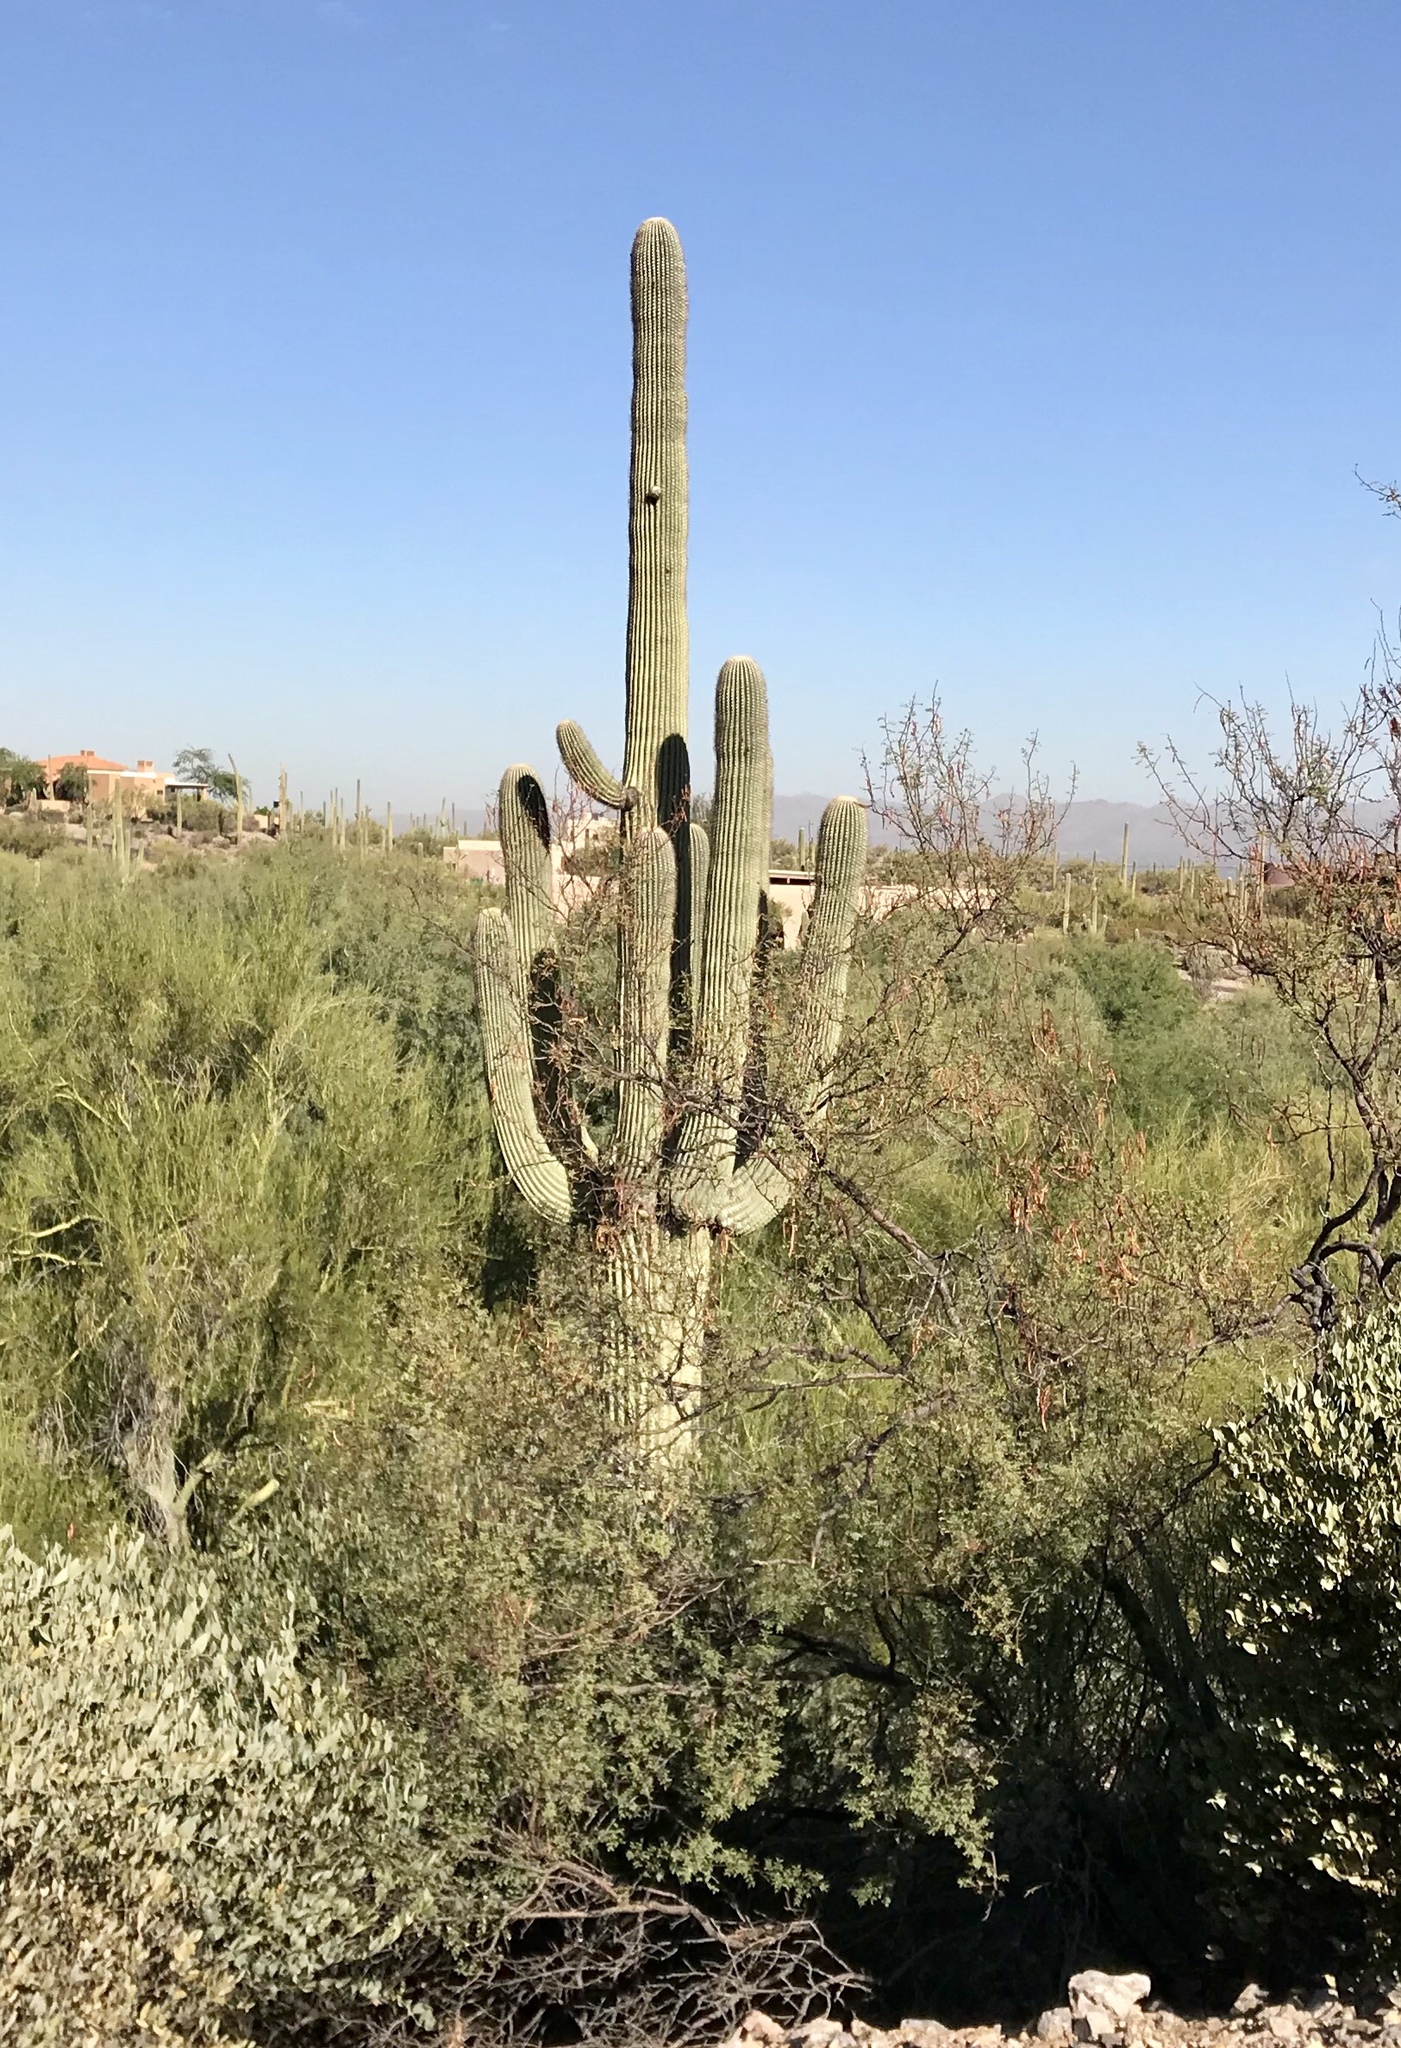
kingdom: Plantae
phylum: Tracheophyta
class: Magnoliopsida
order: Caryophyllales
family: Cactaceae
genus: Carnegiea
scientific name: Carnegiea gigantea
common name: Saguaro
